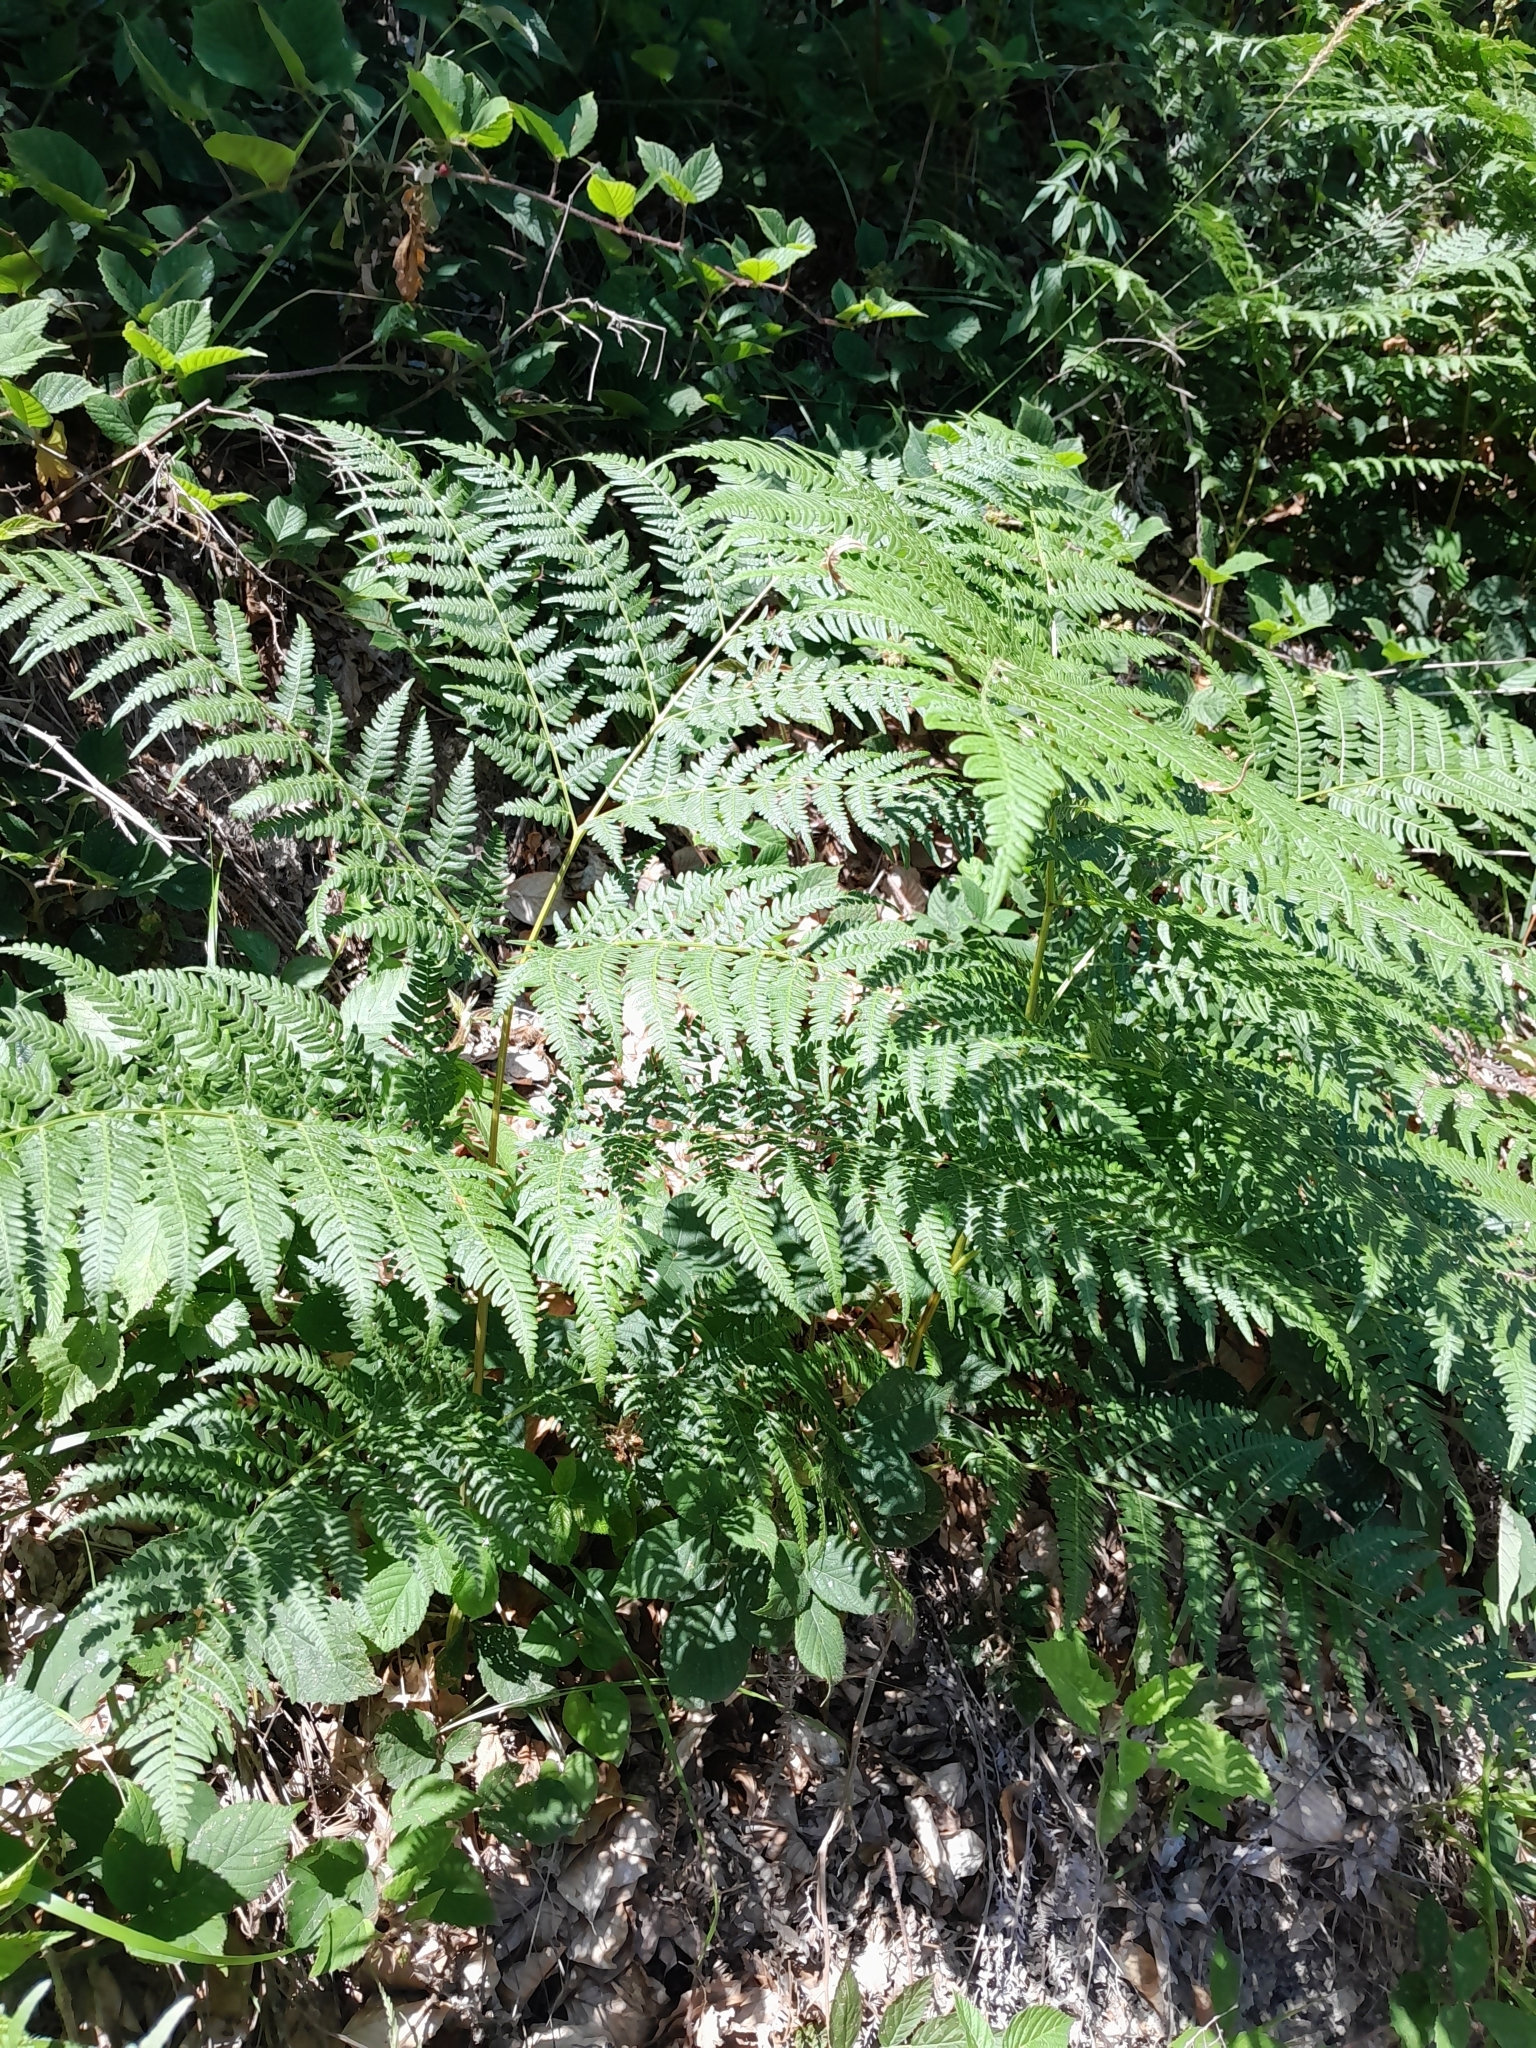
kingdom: Plantae
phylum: Tracheophyta
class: Polypodiopsida
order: Polypodiales
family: Dennstaedtiaceae
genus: Pteridium
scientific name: Pteridium aquilinum
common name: Bracken
